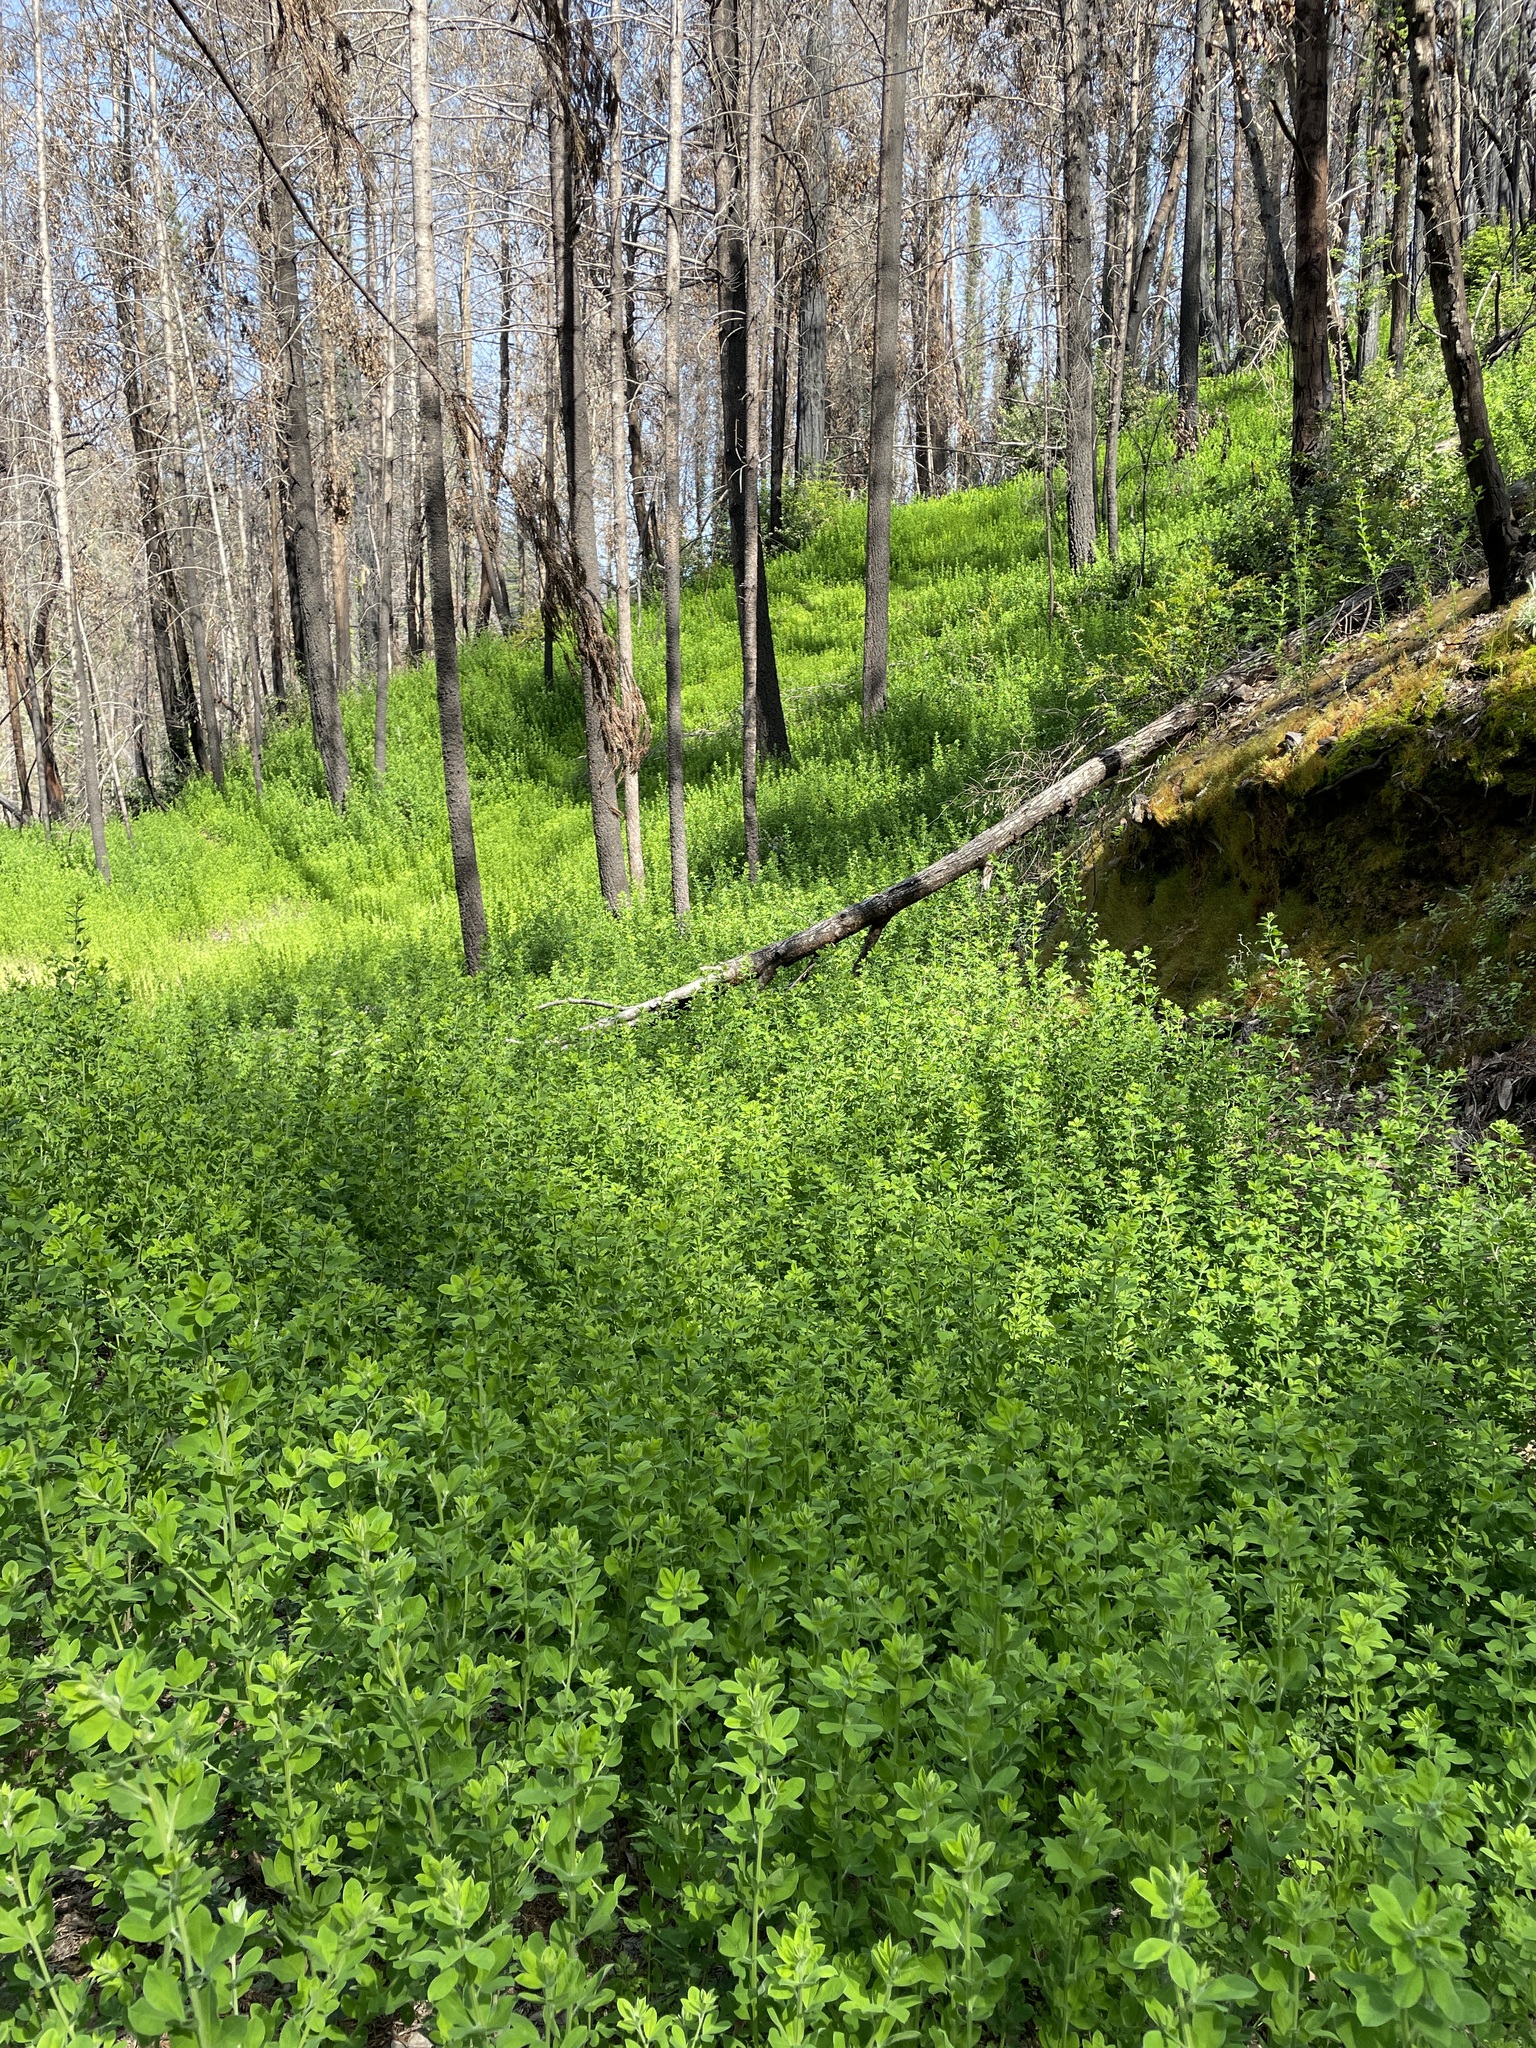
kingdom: Plantae
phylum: Tracheophyta
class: Magnoliopsida
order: Fabales
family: Fabaceae
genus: Genista
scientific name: Genista monspessulana
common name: Montpellier broom
